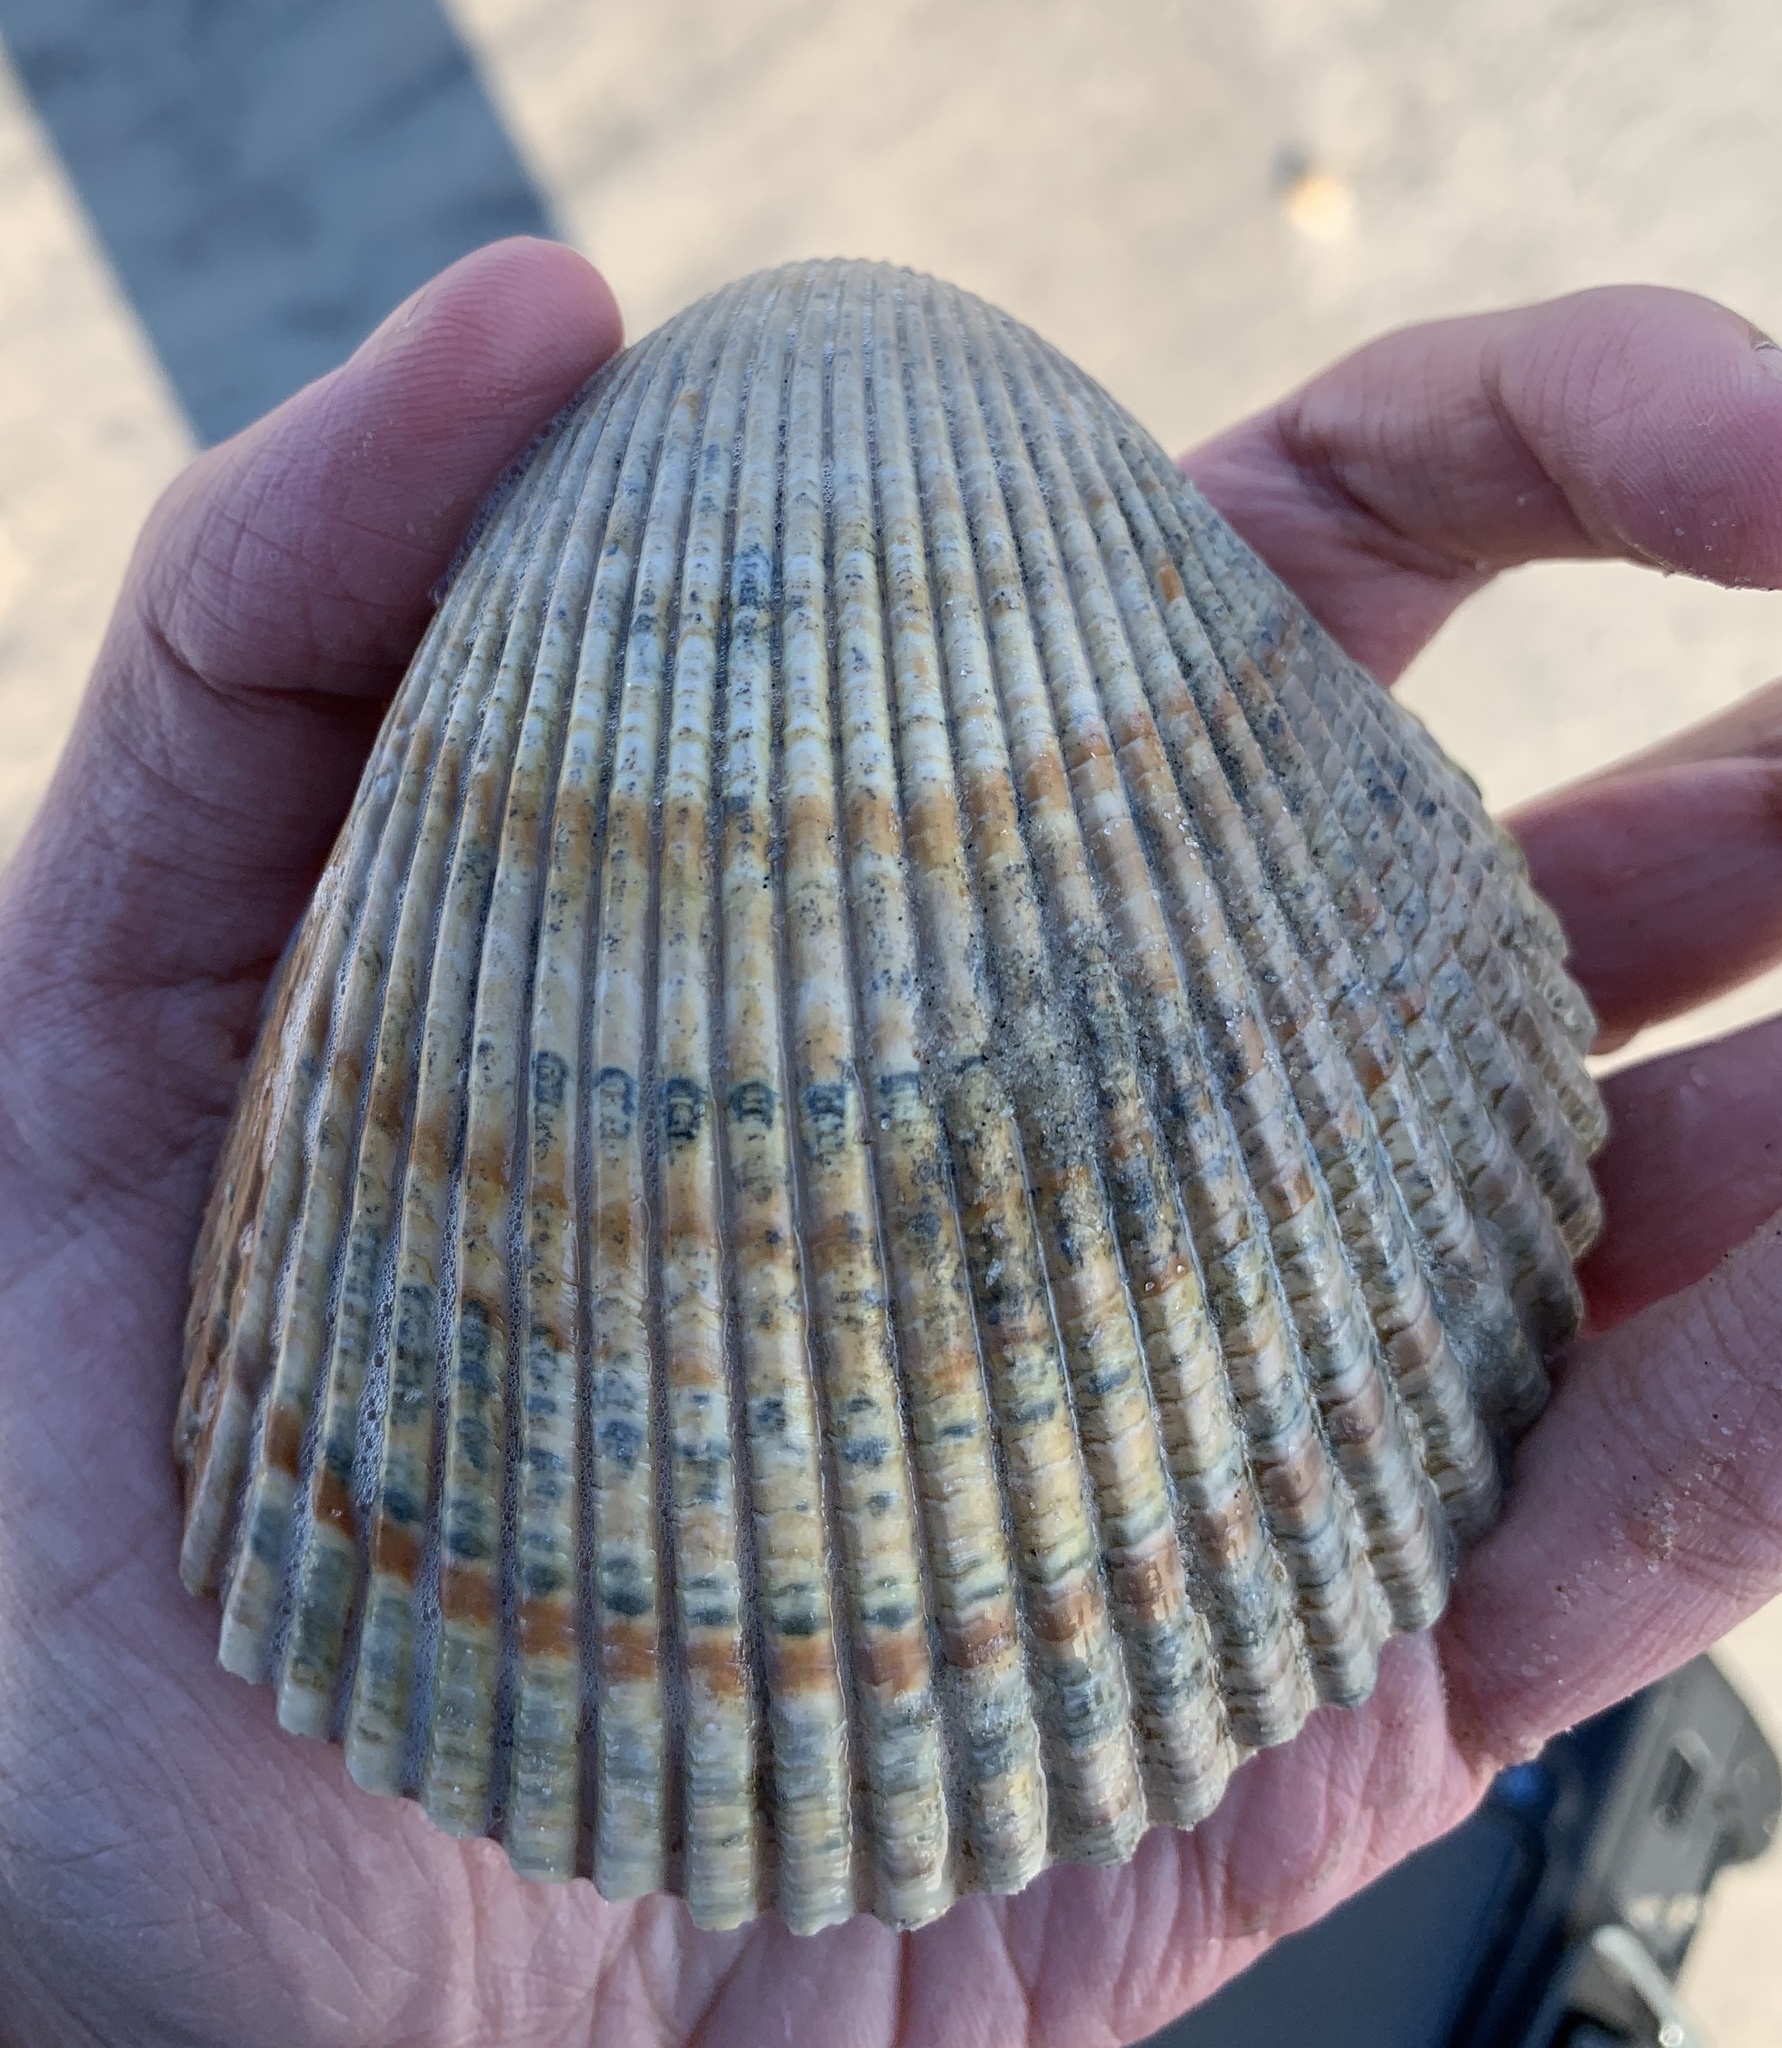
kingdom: Animalia
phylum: Mollusca
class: Bivalvia
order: Cardiida
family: Cardiidae
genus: Dinocardium
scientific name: Dinocardium robustum
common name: Atlantic giant cockle
